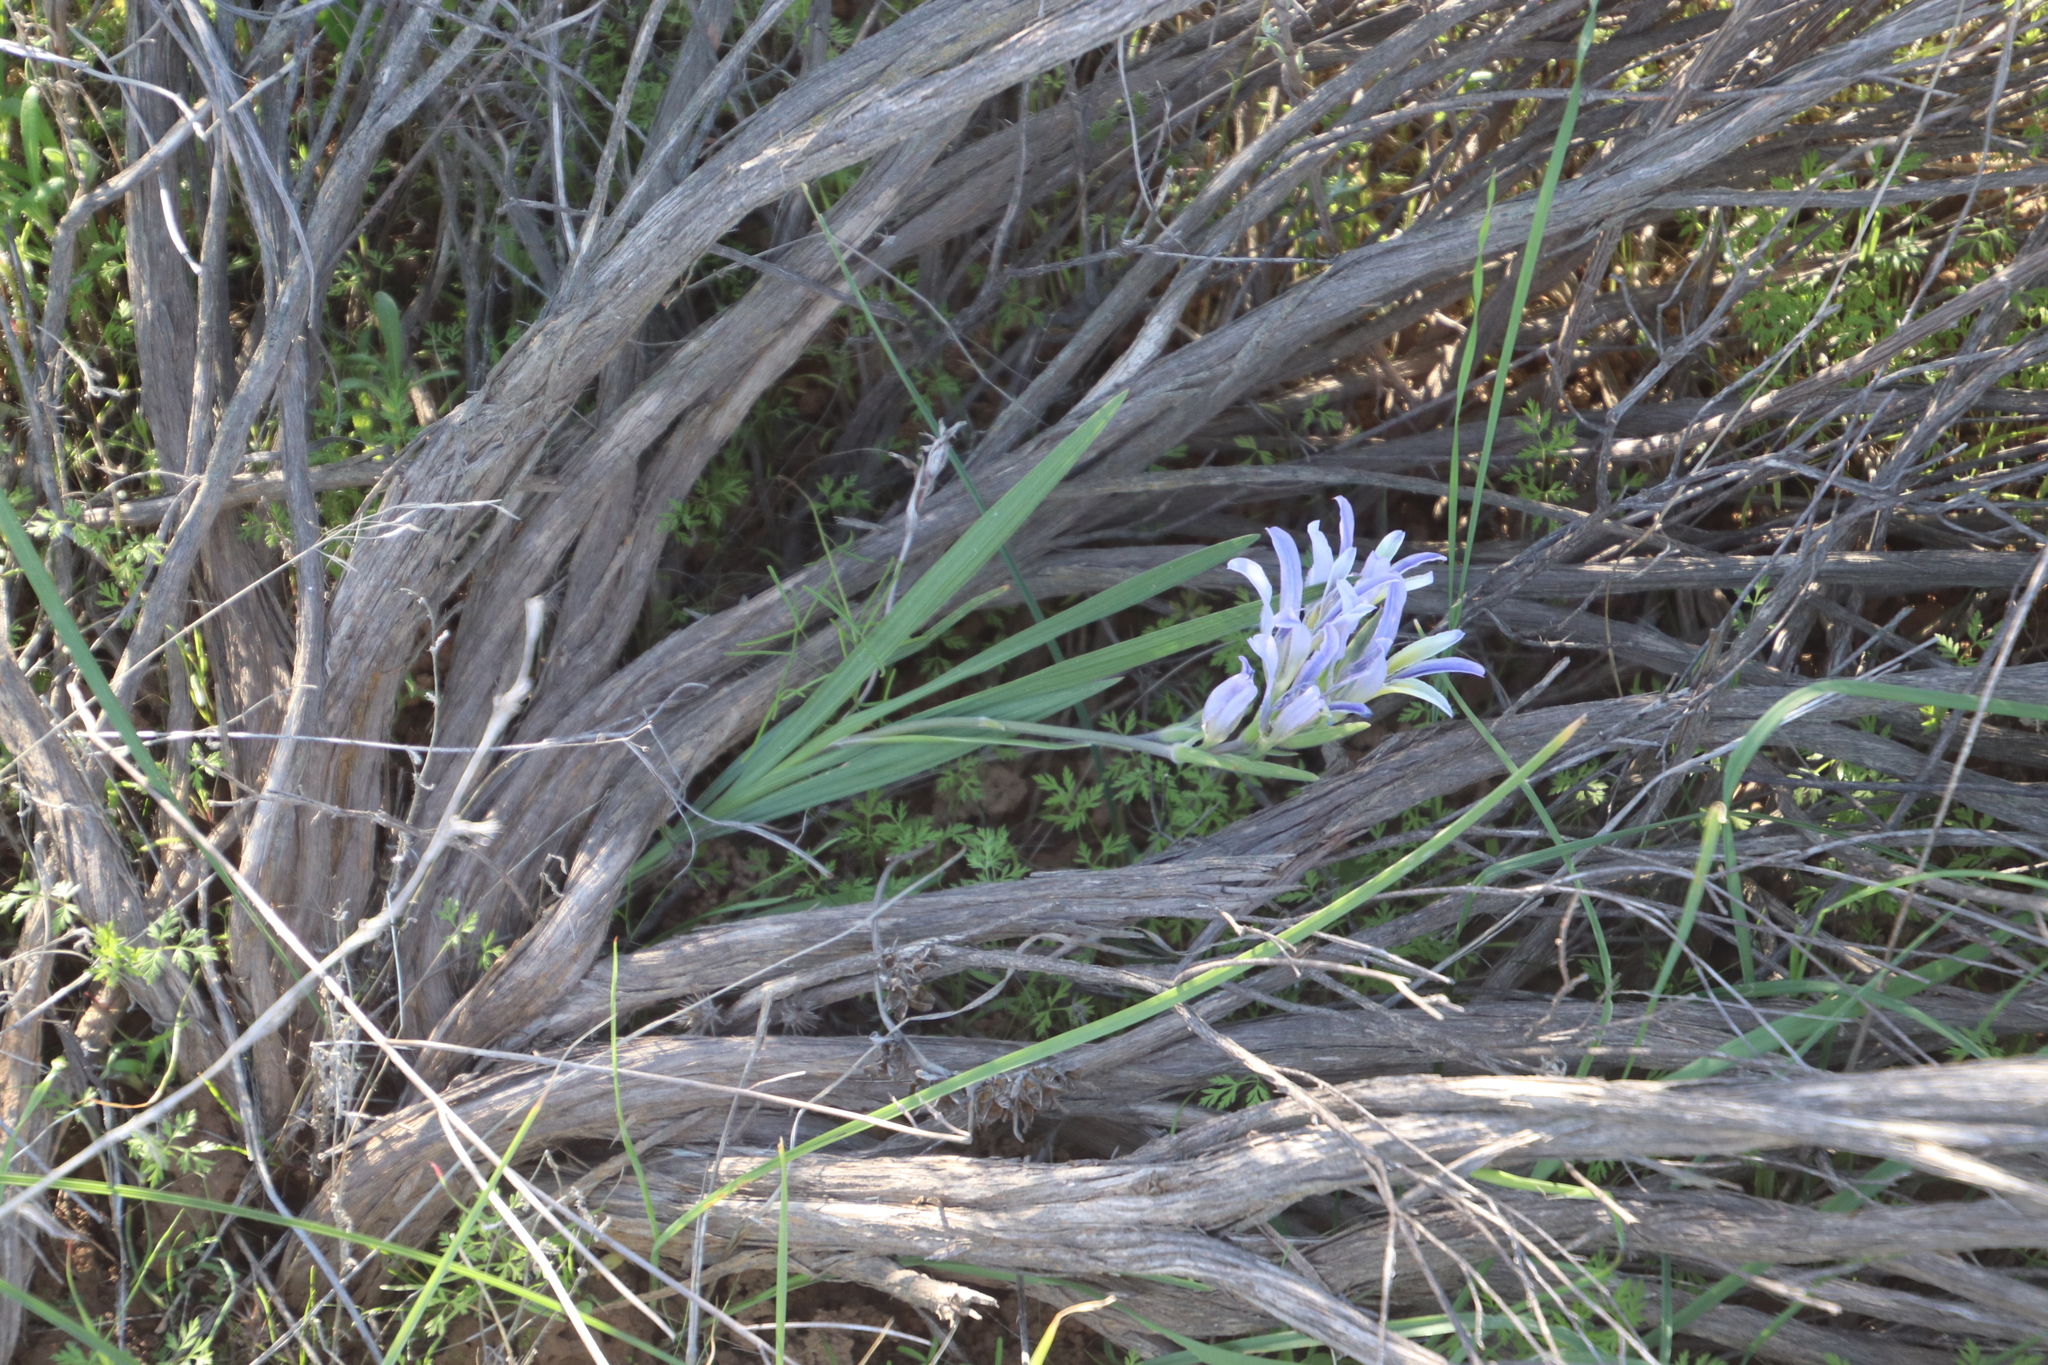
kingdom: Plantae
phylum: Tracheophyta
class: Liliopsida
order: Asparagales
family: Iridaceae
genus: Babiana
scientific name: Babiana mucronata
